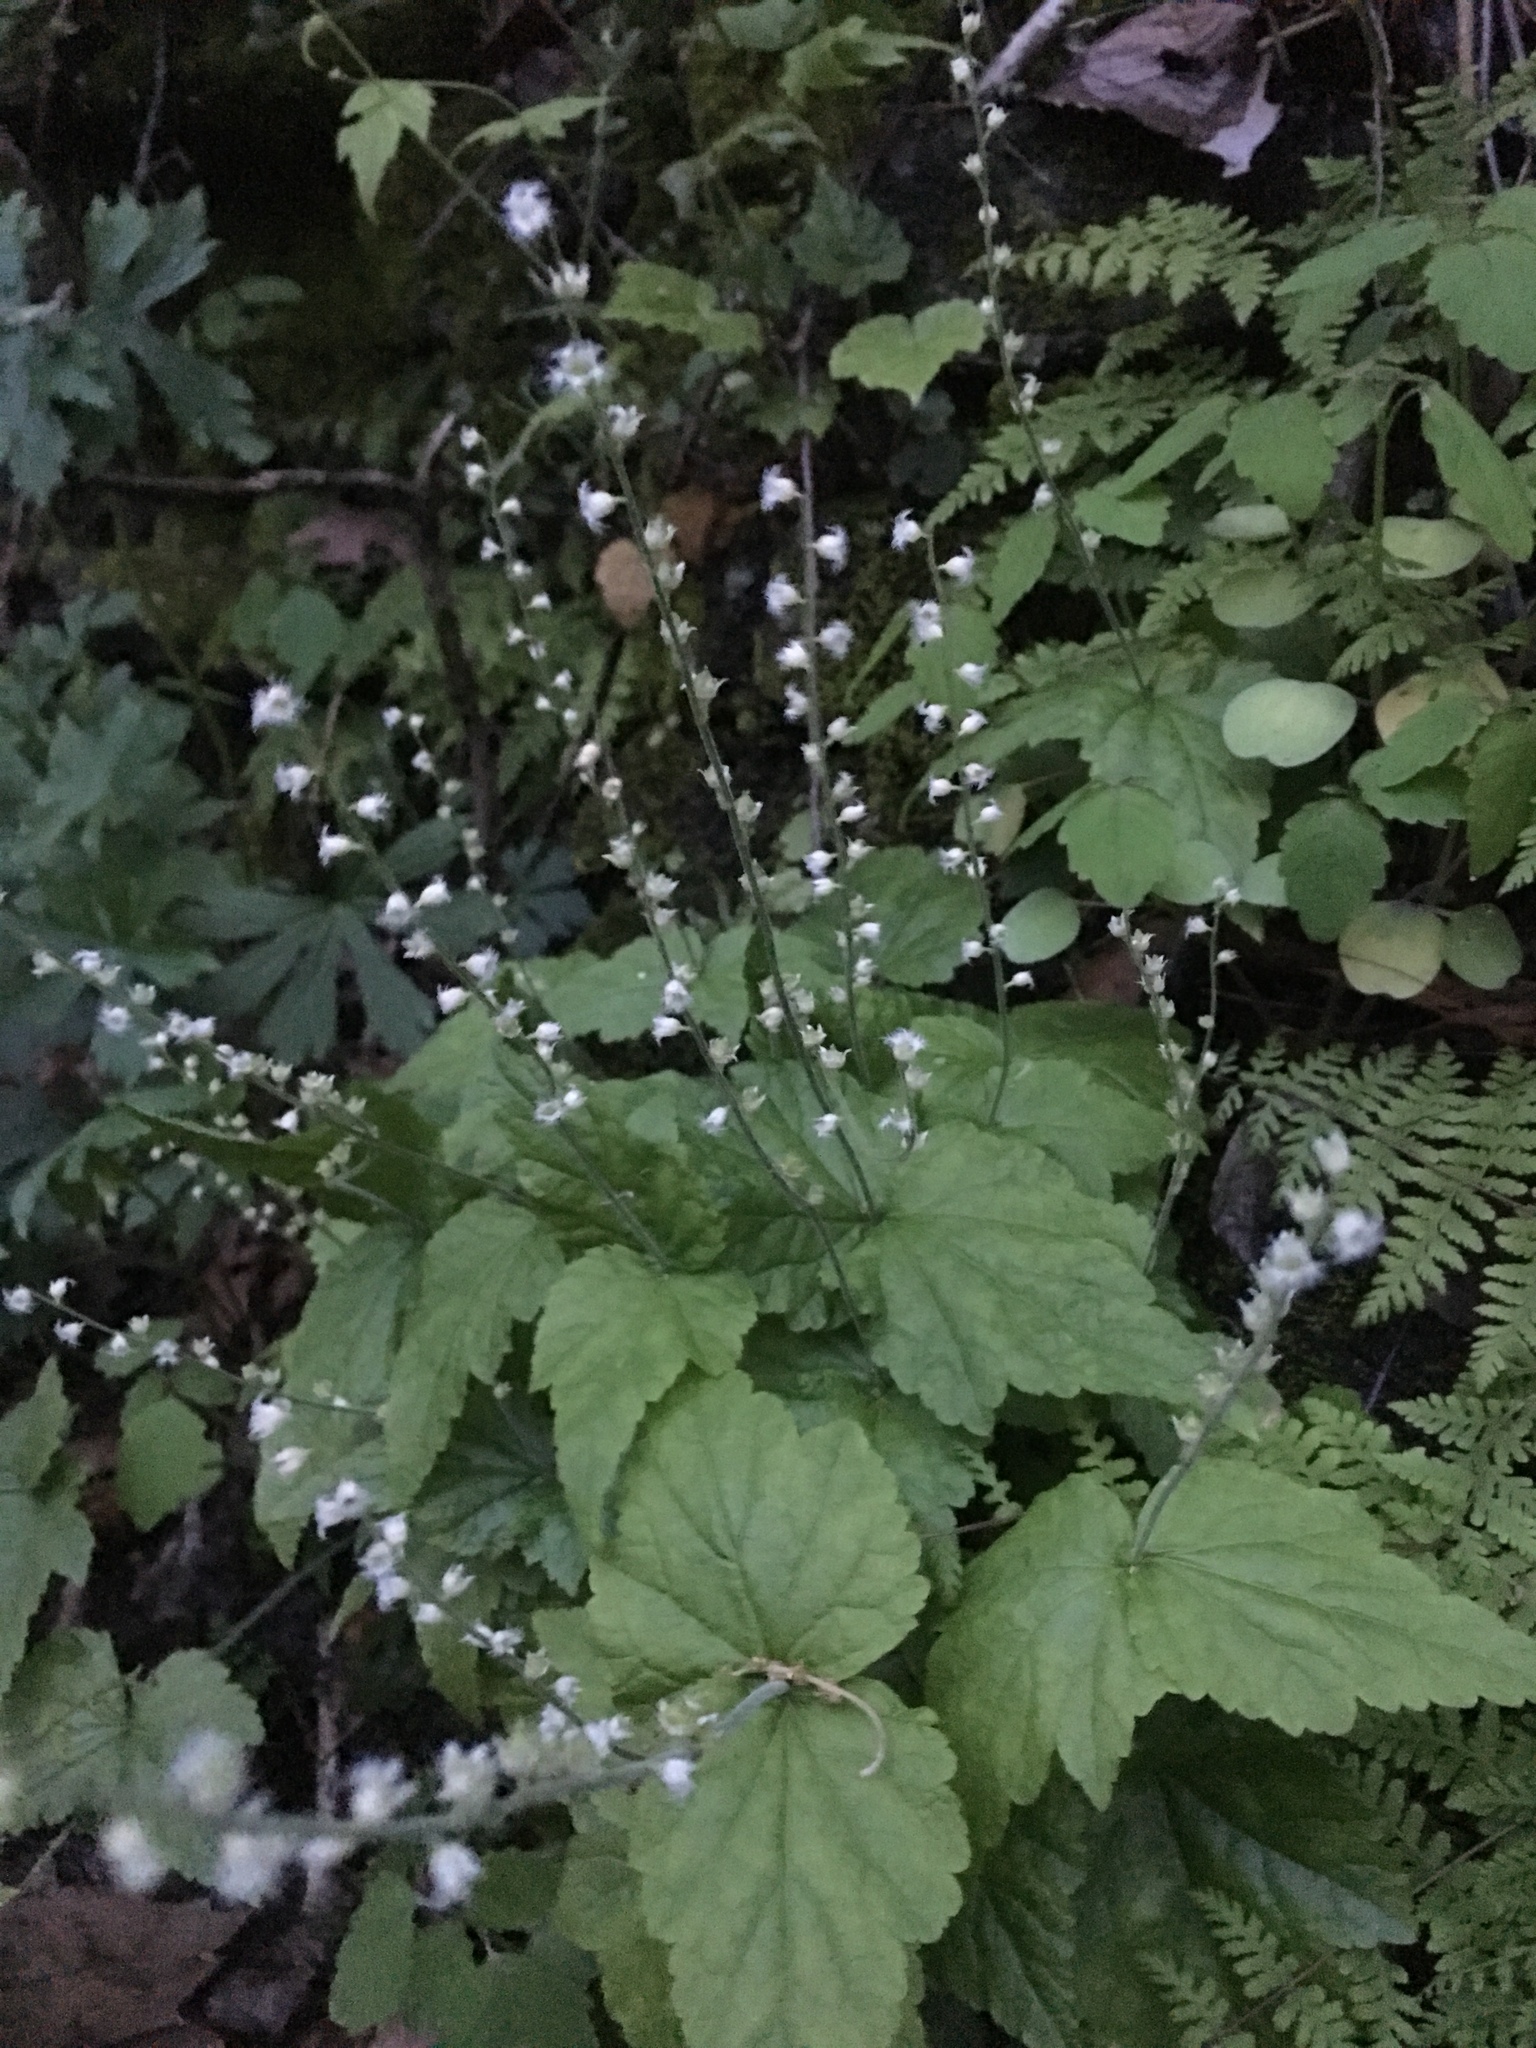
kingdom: Plantae
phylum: Tracheophyta
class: Magnoliopsida
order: Saxifragales
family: Saxifragaceae
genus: Mitella
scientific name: Mitella diphylla
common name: Coolwort
